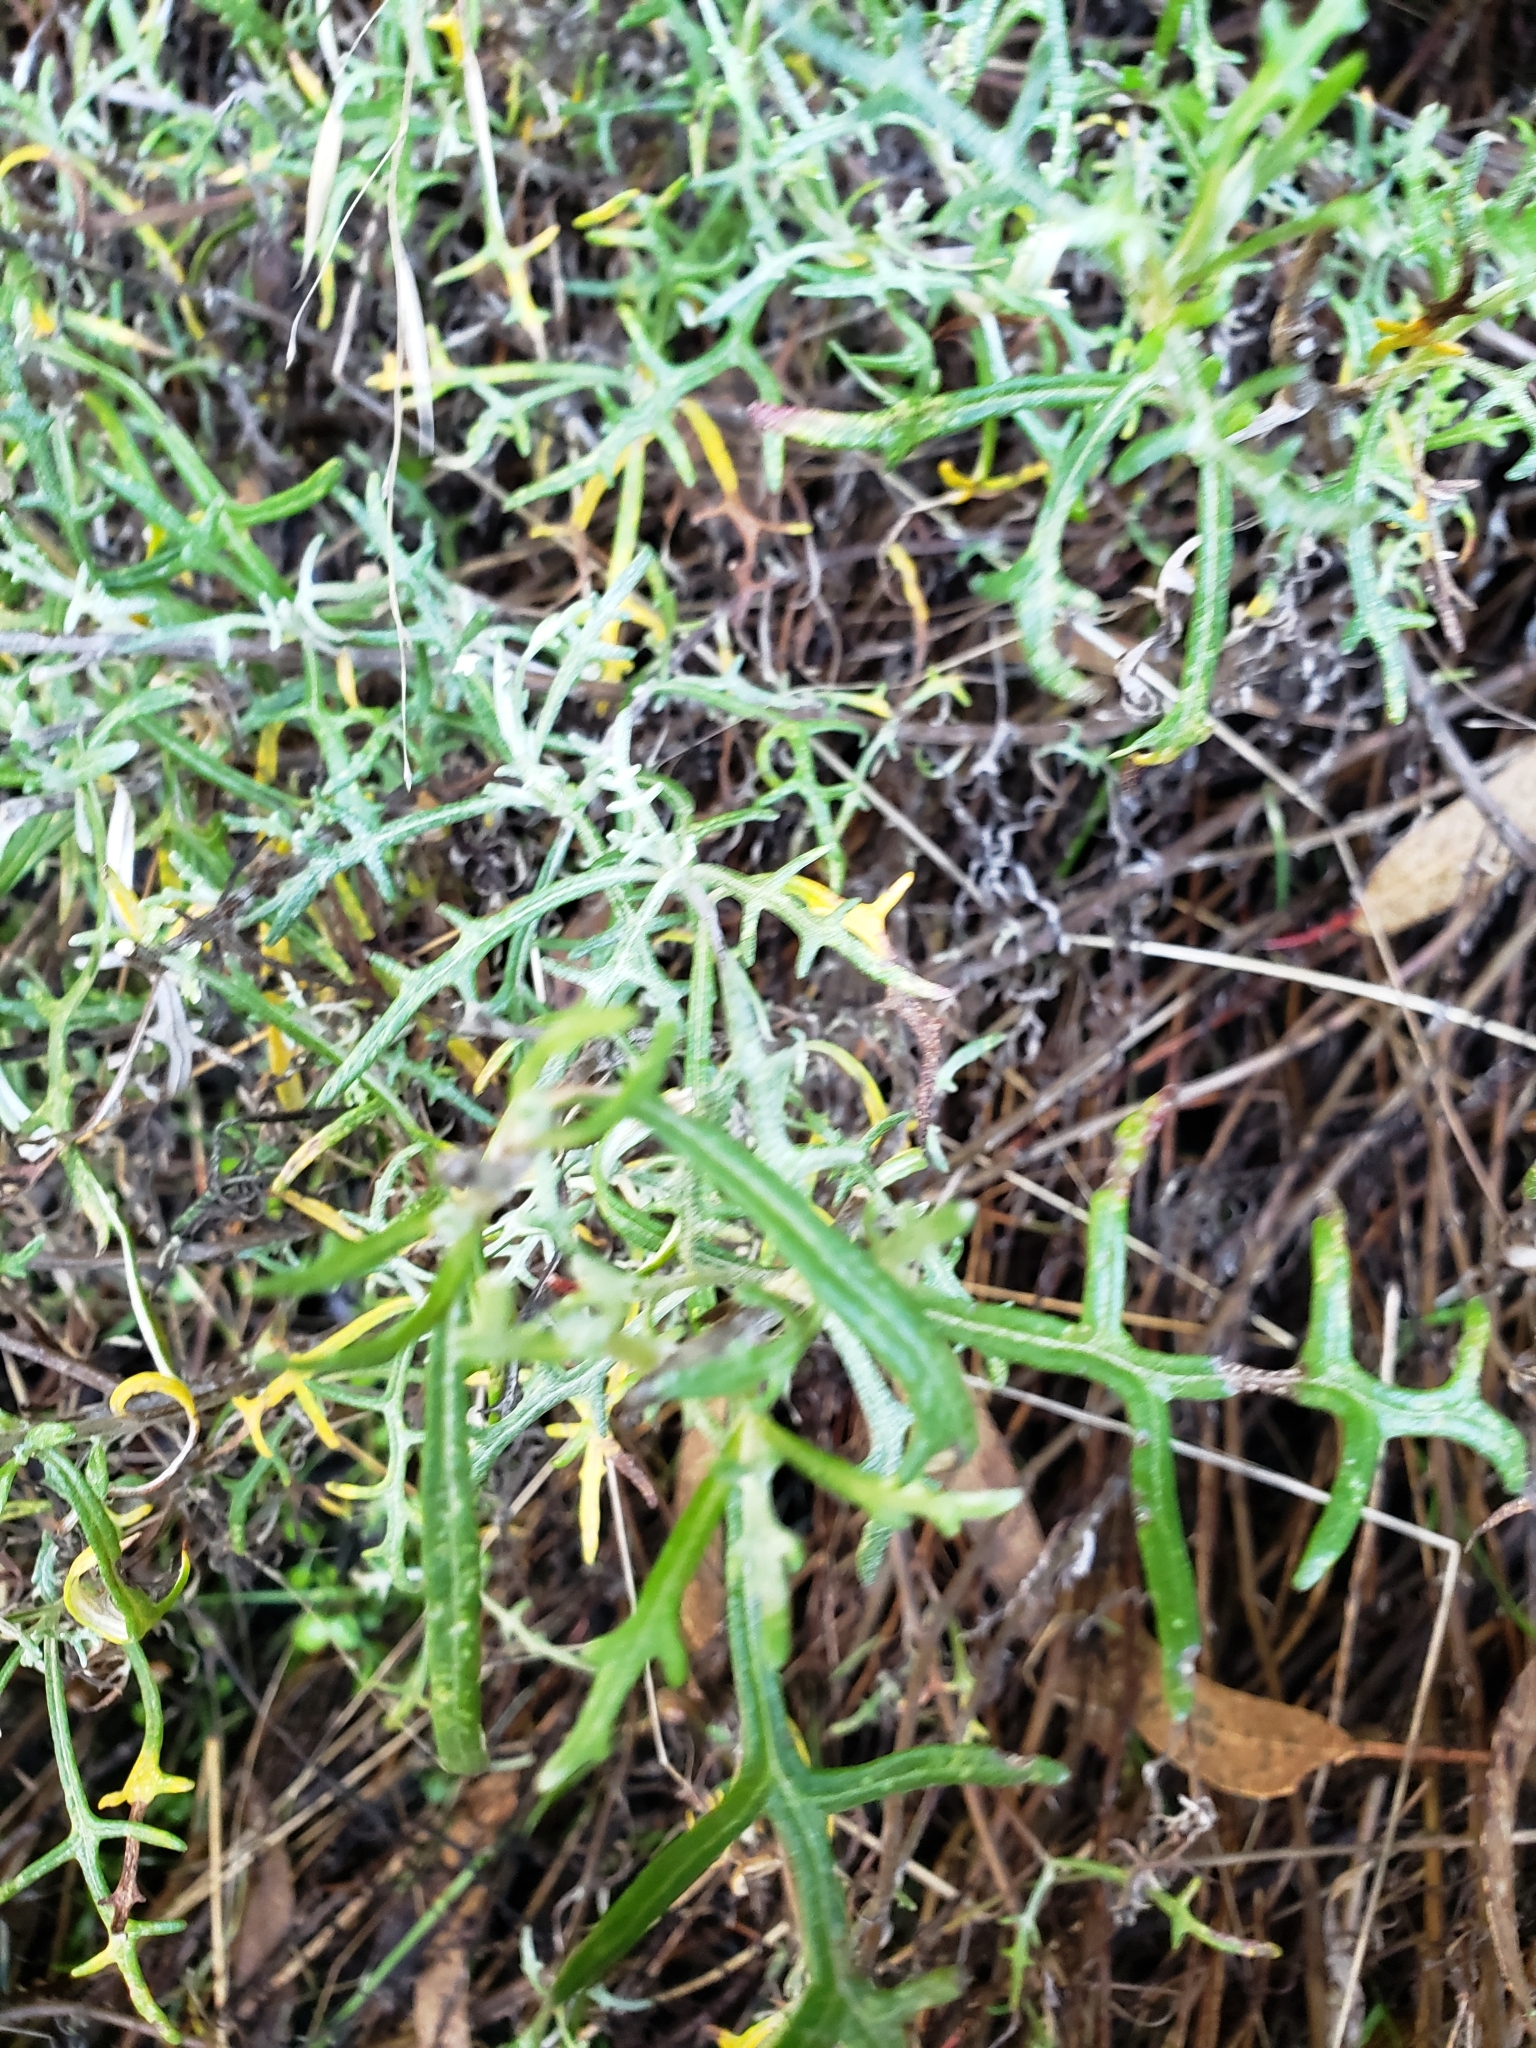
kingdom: Plantae
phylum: Tracheophyta
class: Magnoliopsida
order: Asterales
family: Asteraceae
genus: Eriophyllum
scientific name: Eriophyllum staechadifolium
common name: Lizardtail
